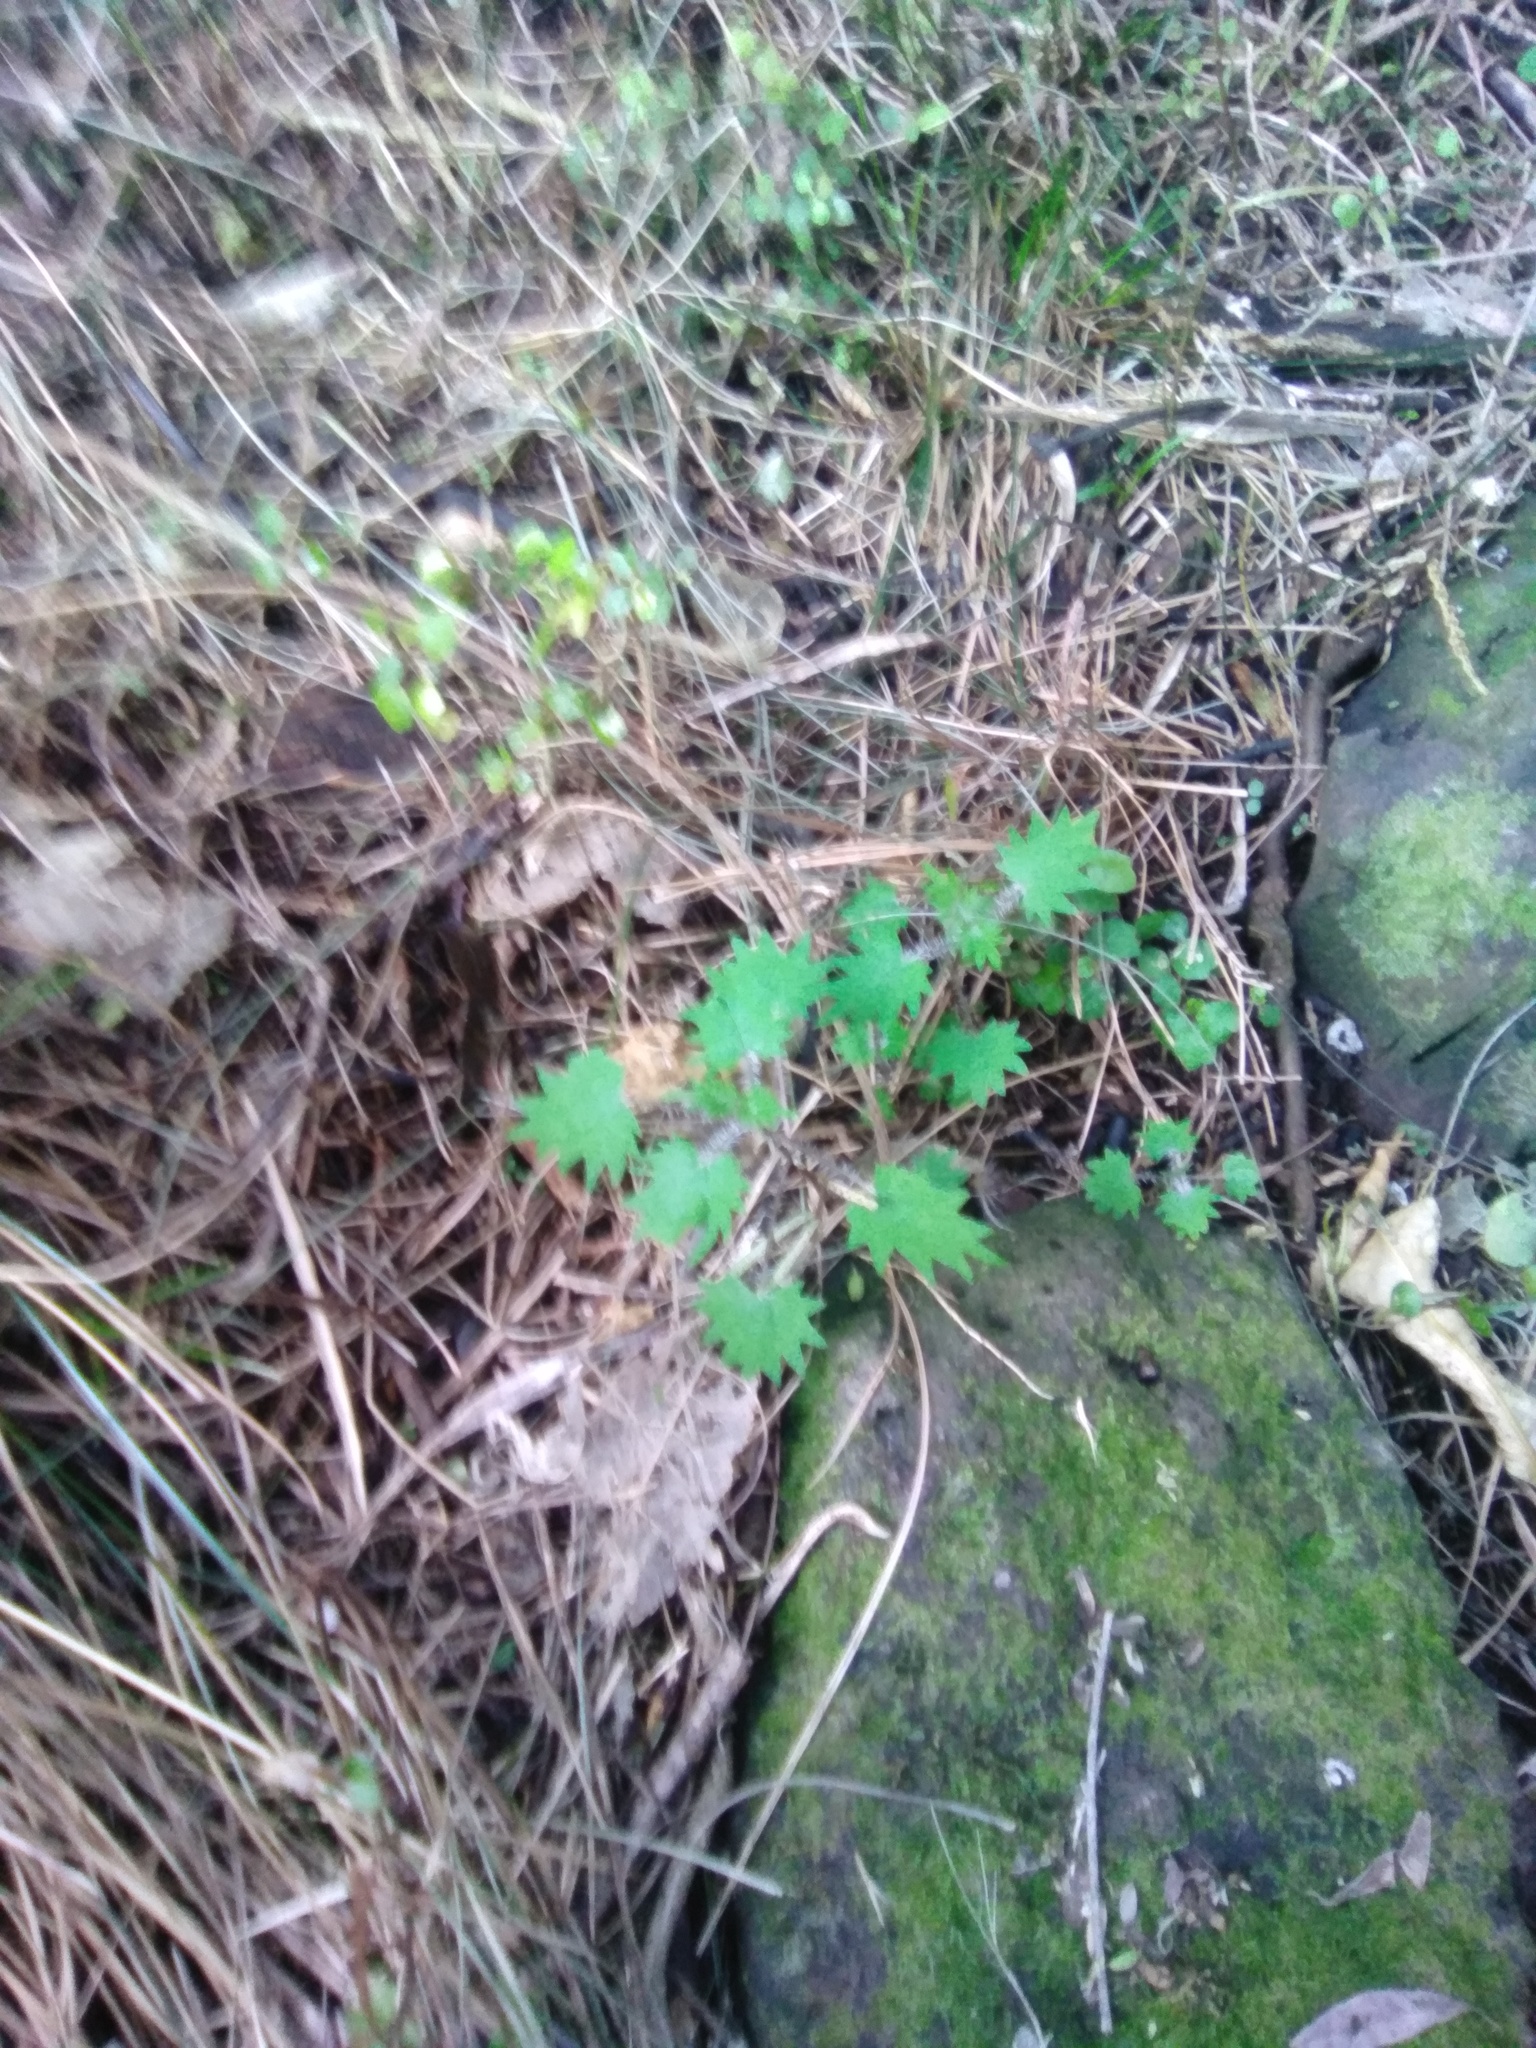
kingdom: Plantae
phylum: Tracheophyta
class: Magnoliopsida
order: Rosales
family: Urticaceae
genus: Urtica
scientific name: Urtica sykesii
